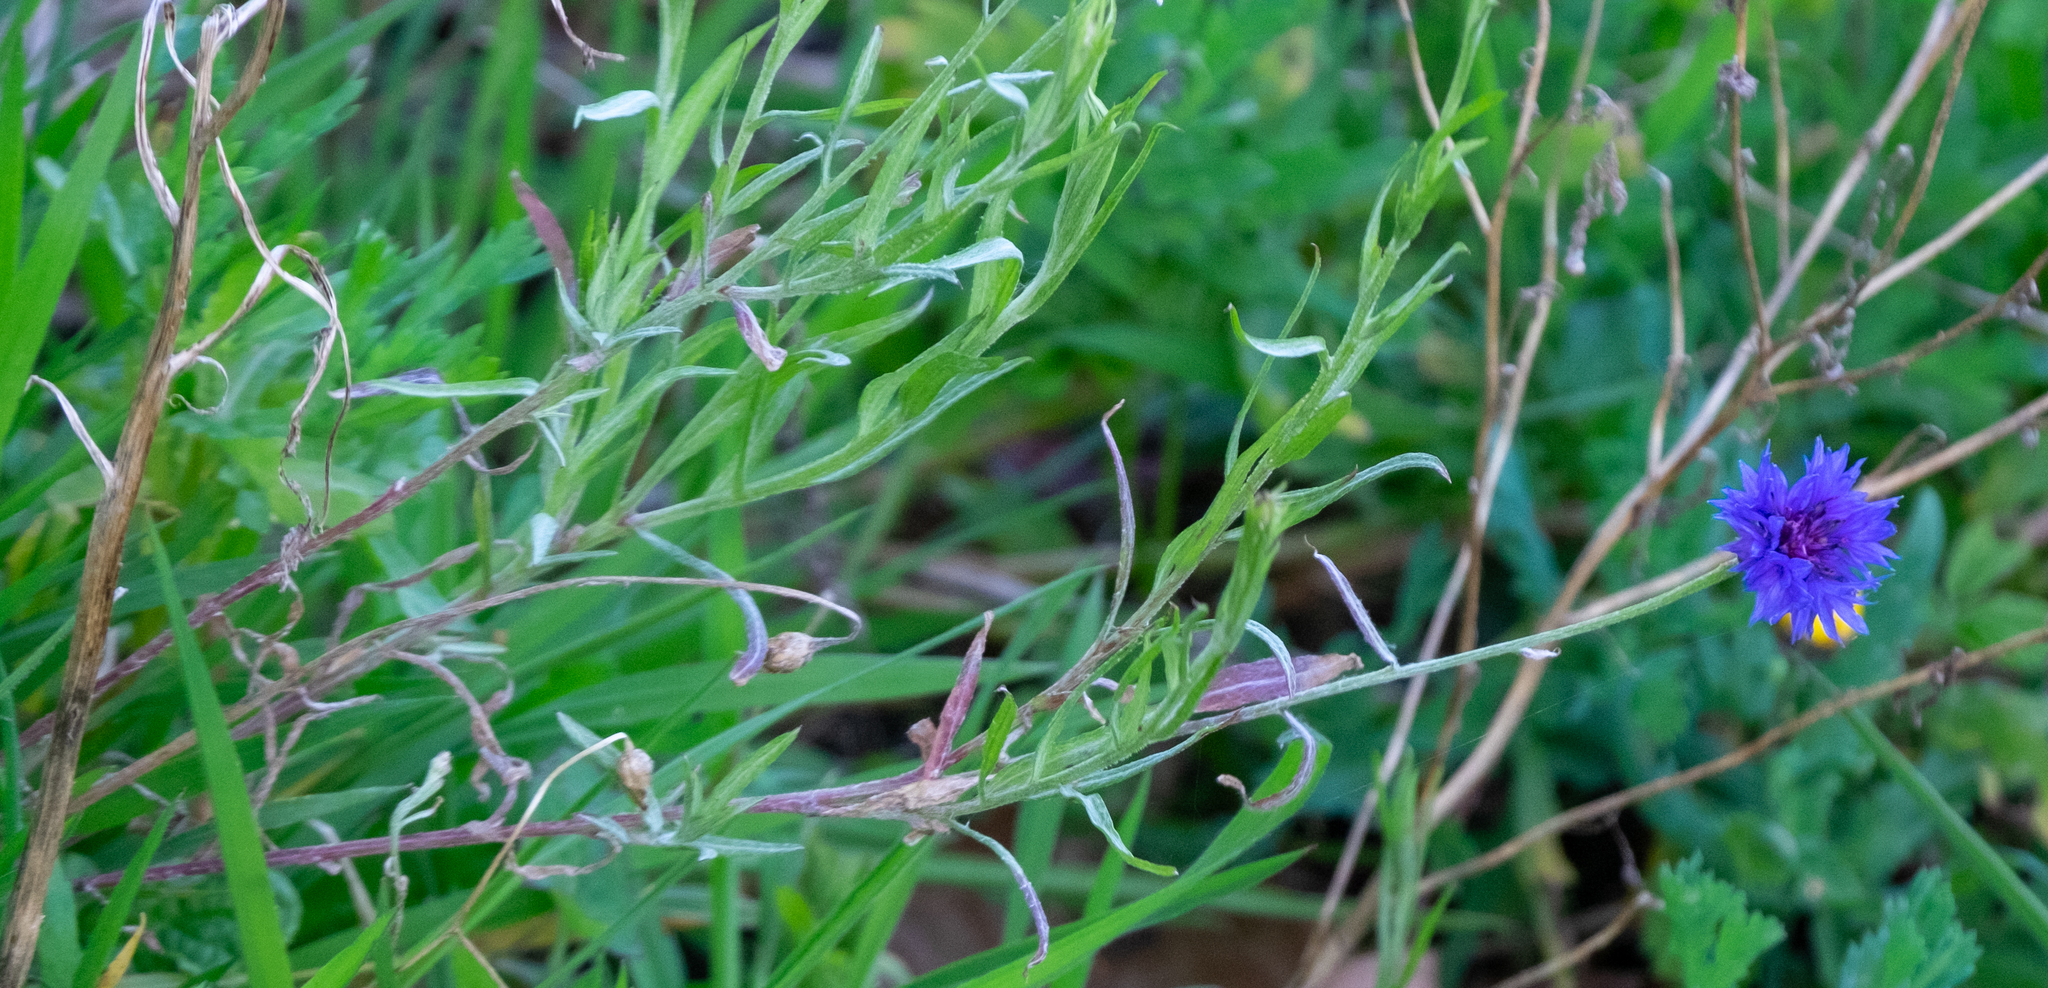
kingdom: Plantae
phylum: Tracheophyta
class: Magnoliopsida
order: Asterales
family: Asteraceae
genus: Centaurea
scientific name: Centaurea cyanus
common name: Cornflower
